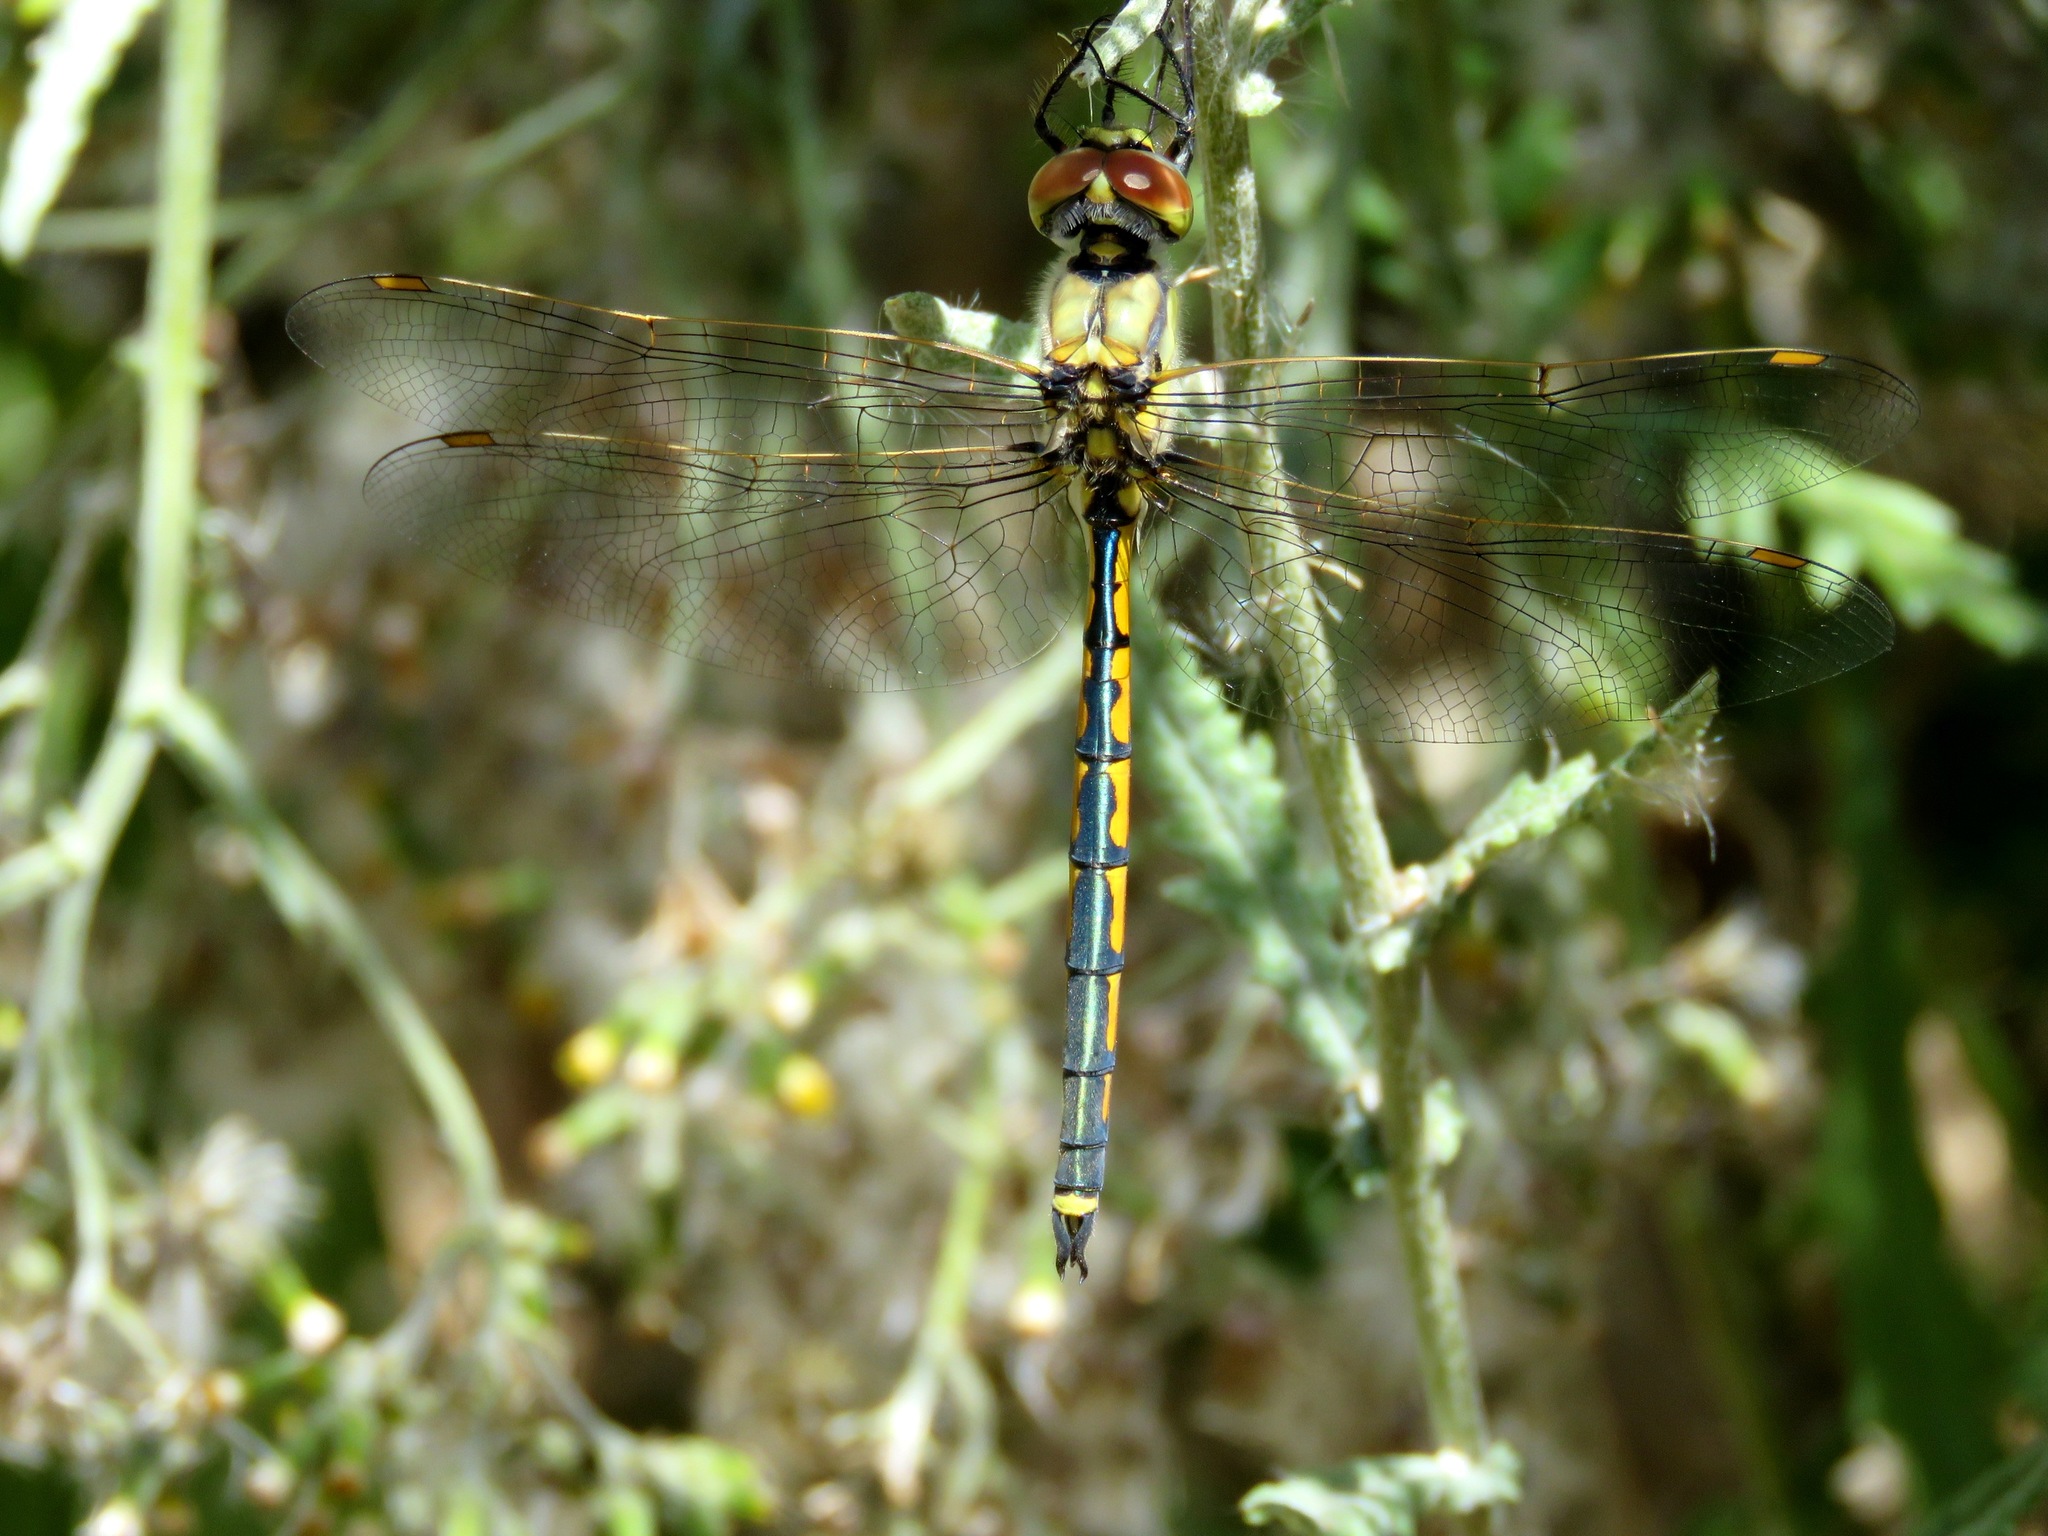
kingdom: Animalia
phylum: Arthropoda
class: Insecta
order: Odonata
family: Corduliidae
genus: Hemicordulia
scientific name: Hemicordulia tau
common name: Tau emerald
